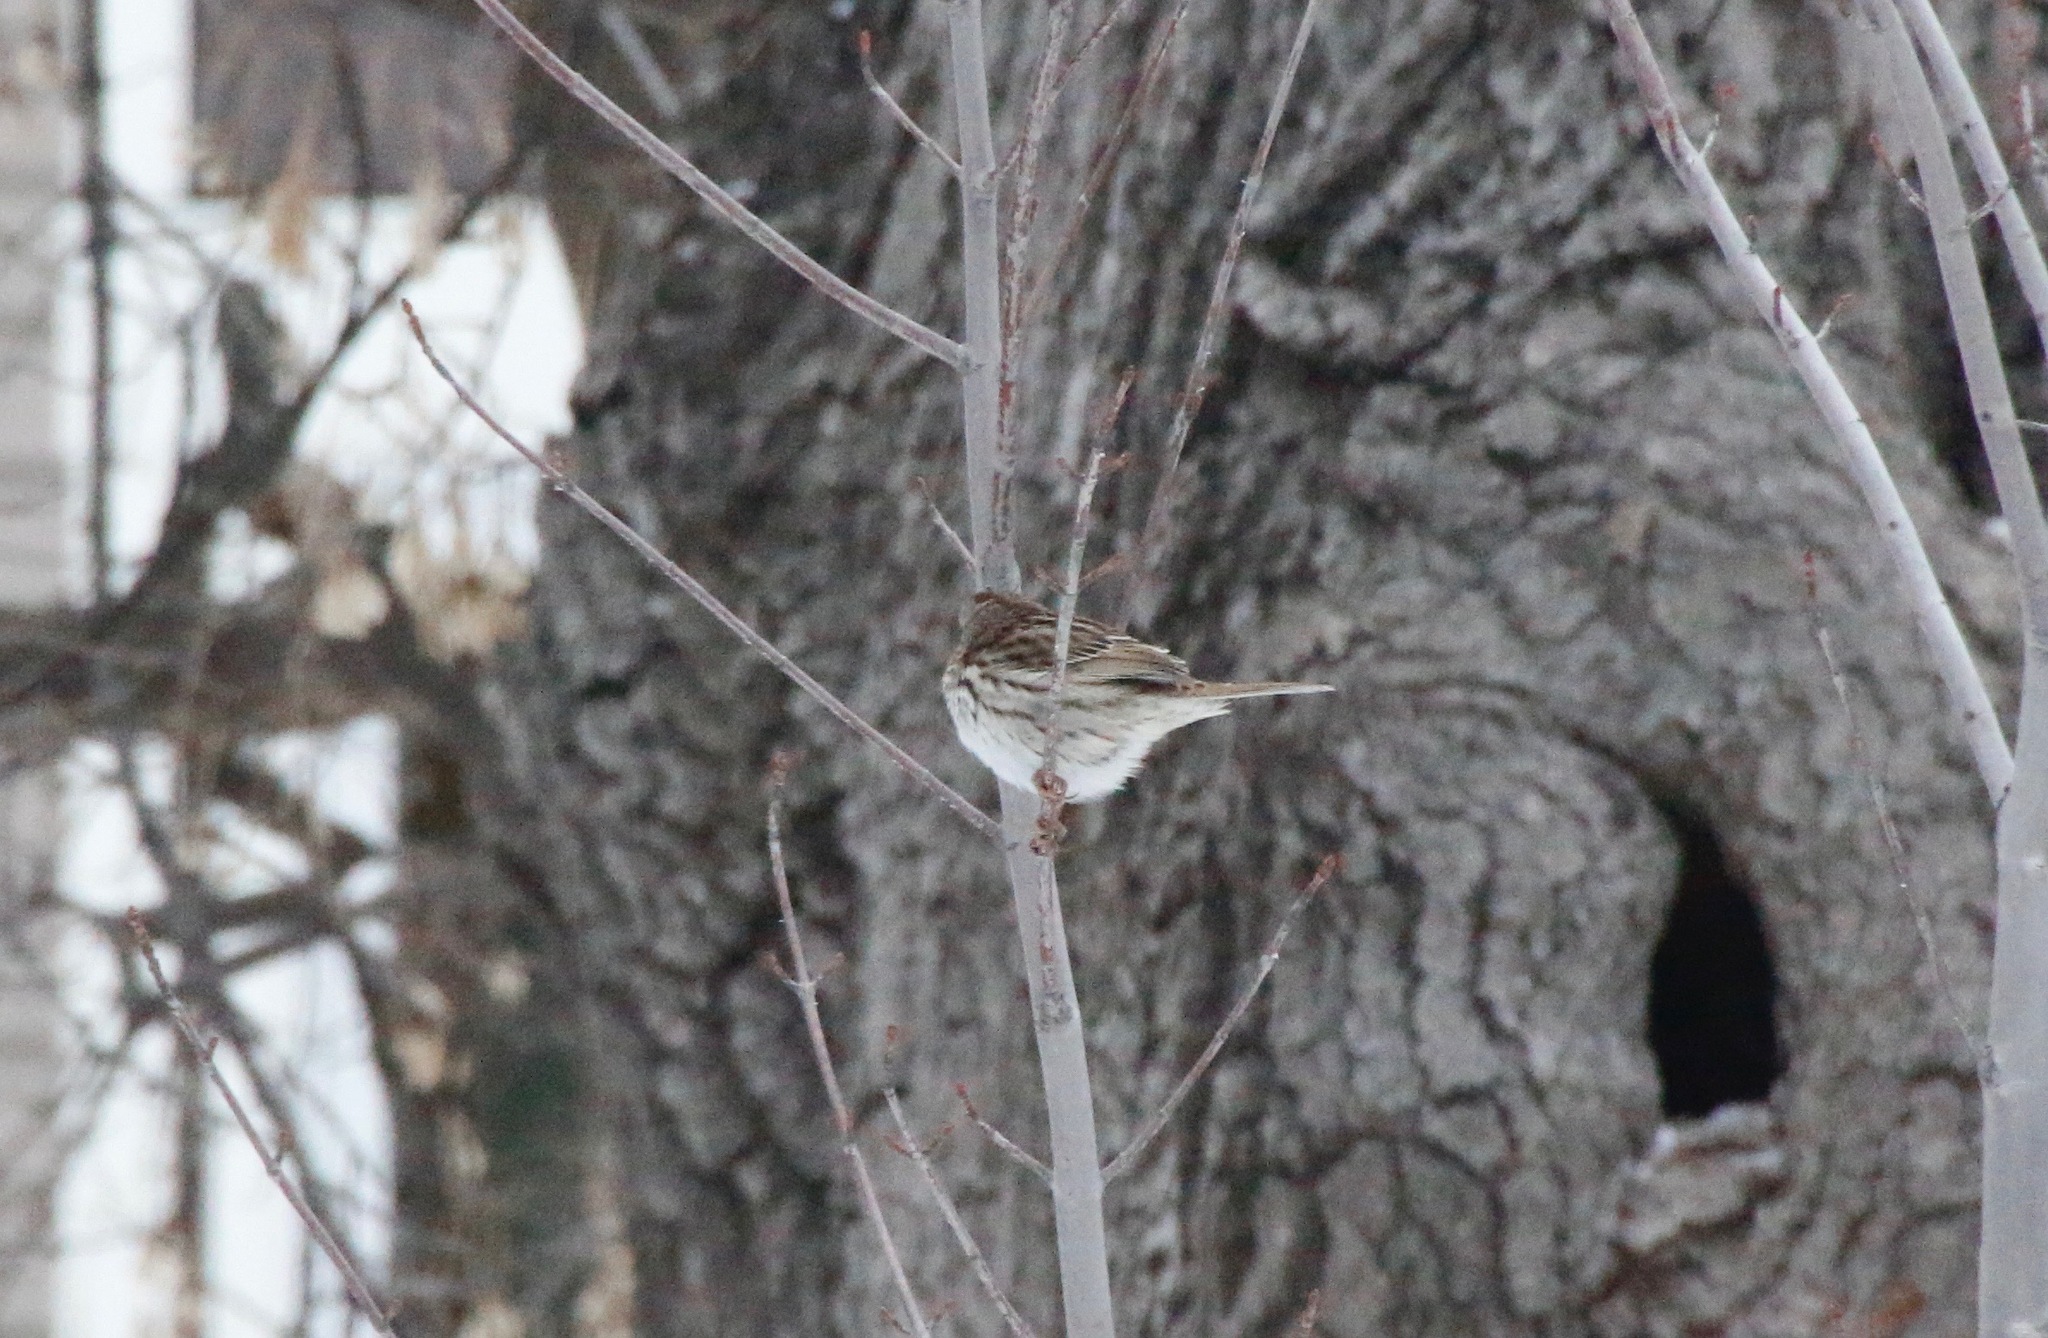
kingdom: Animalia
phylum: Chordata
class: Aves
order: Passeriformes
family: Passerellidae
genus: Melospiza
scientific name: Melospiza melodia
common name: Song sparrow
